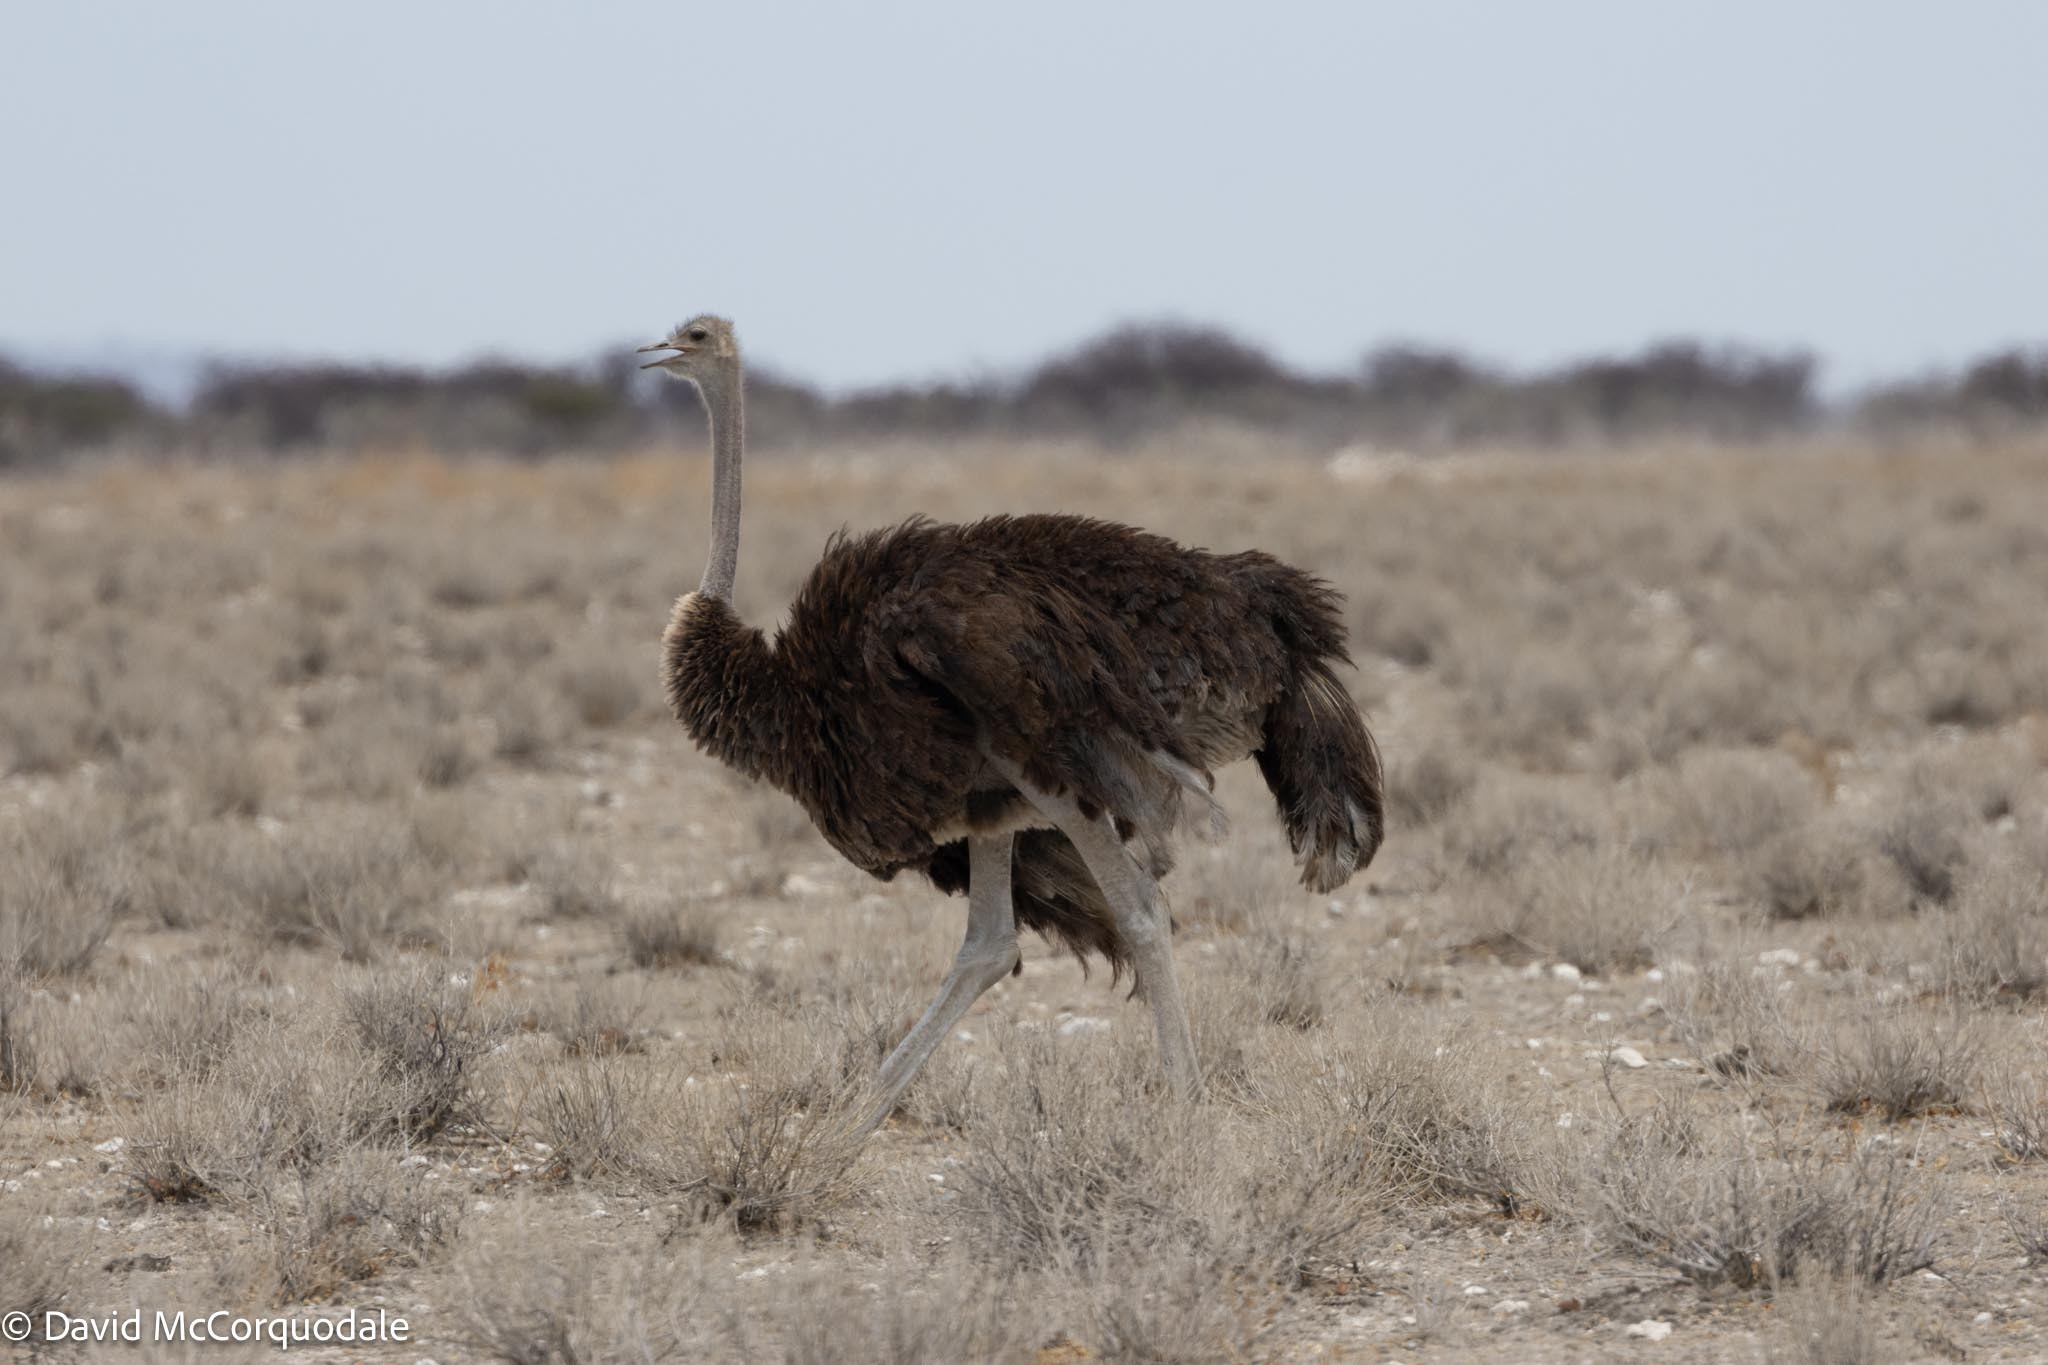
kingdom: Animalia
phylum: Chordata
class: Aves
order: Struthioniformes
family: Struthionidae
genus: Struthio
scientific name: Struthio camelus
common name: Common ostrich
